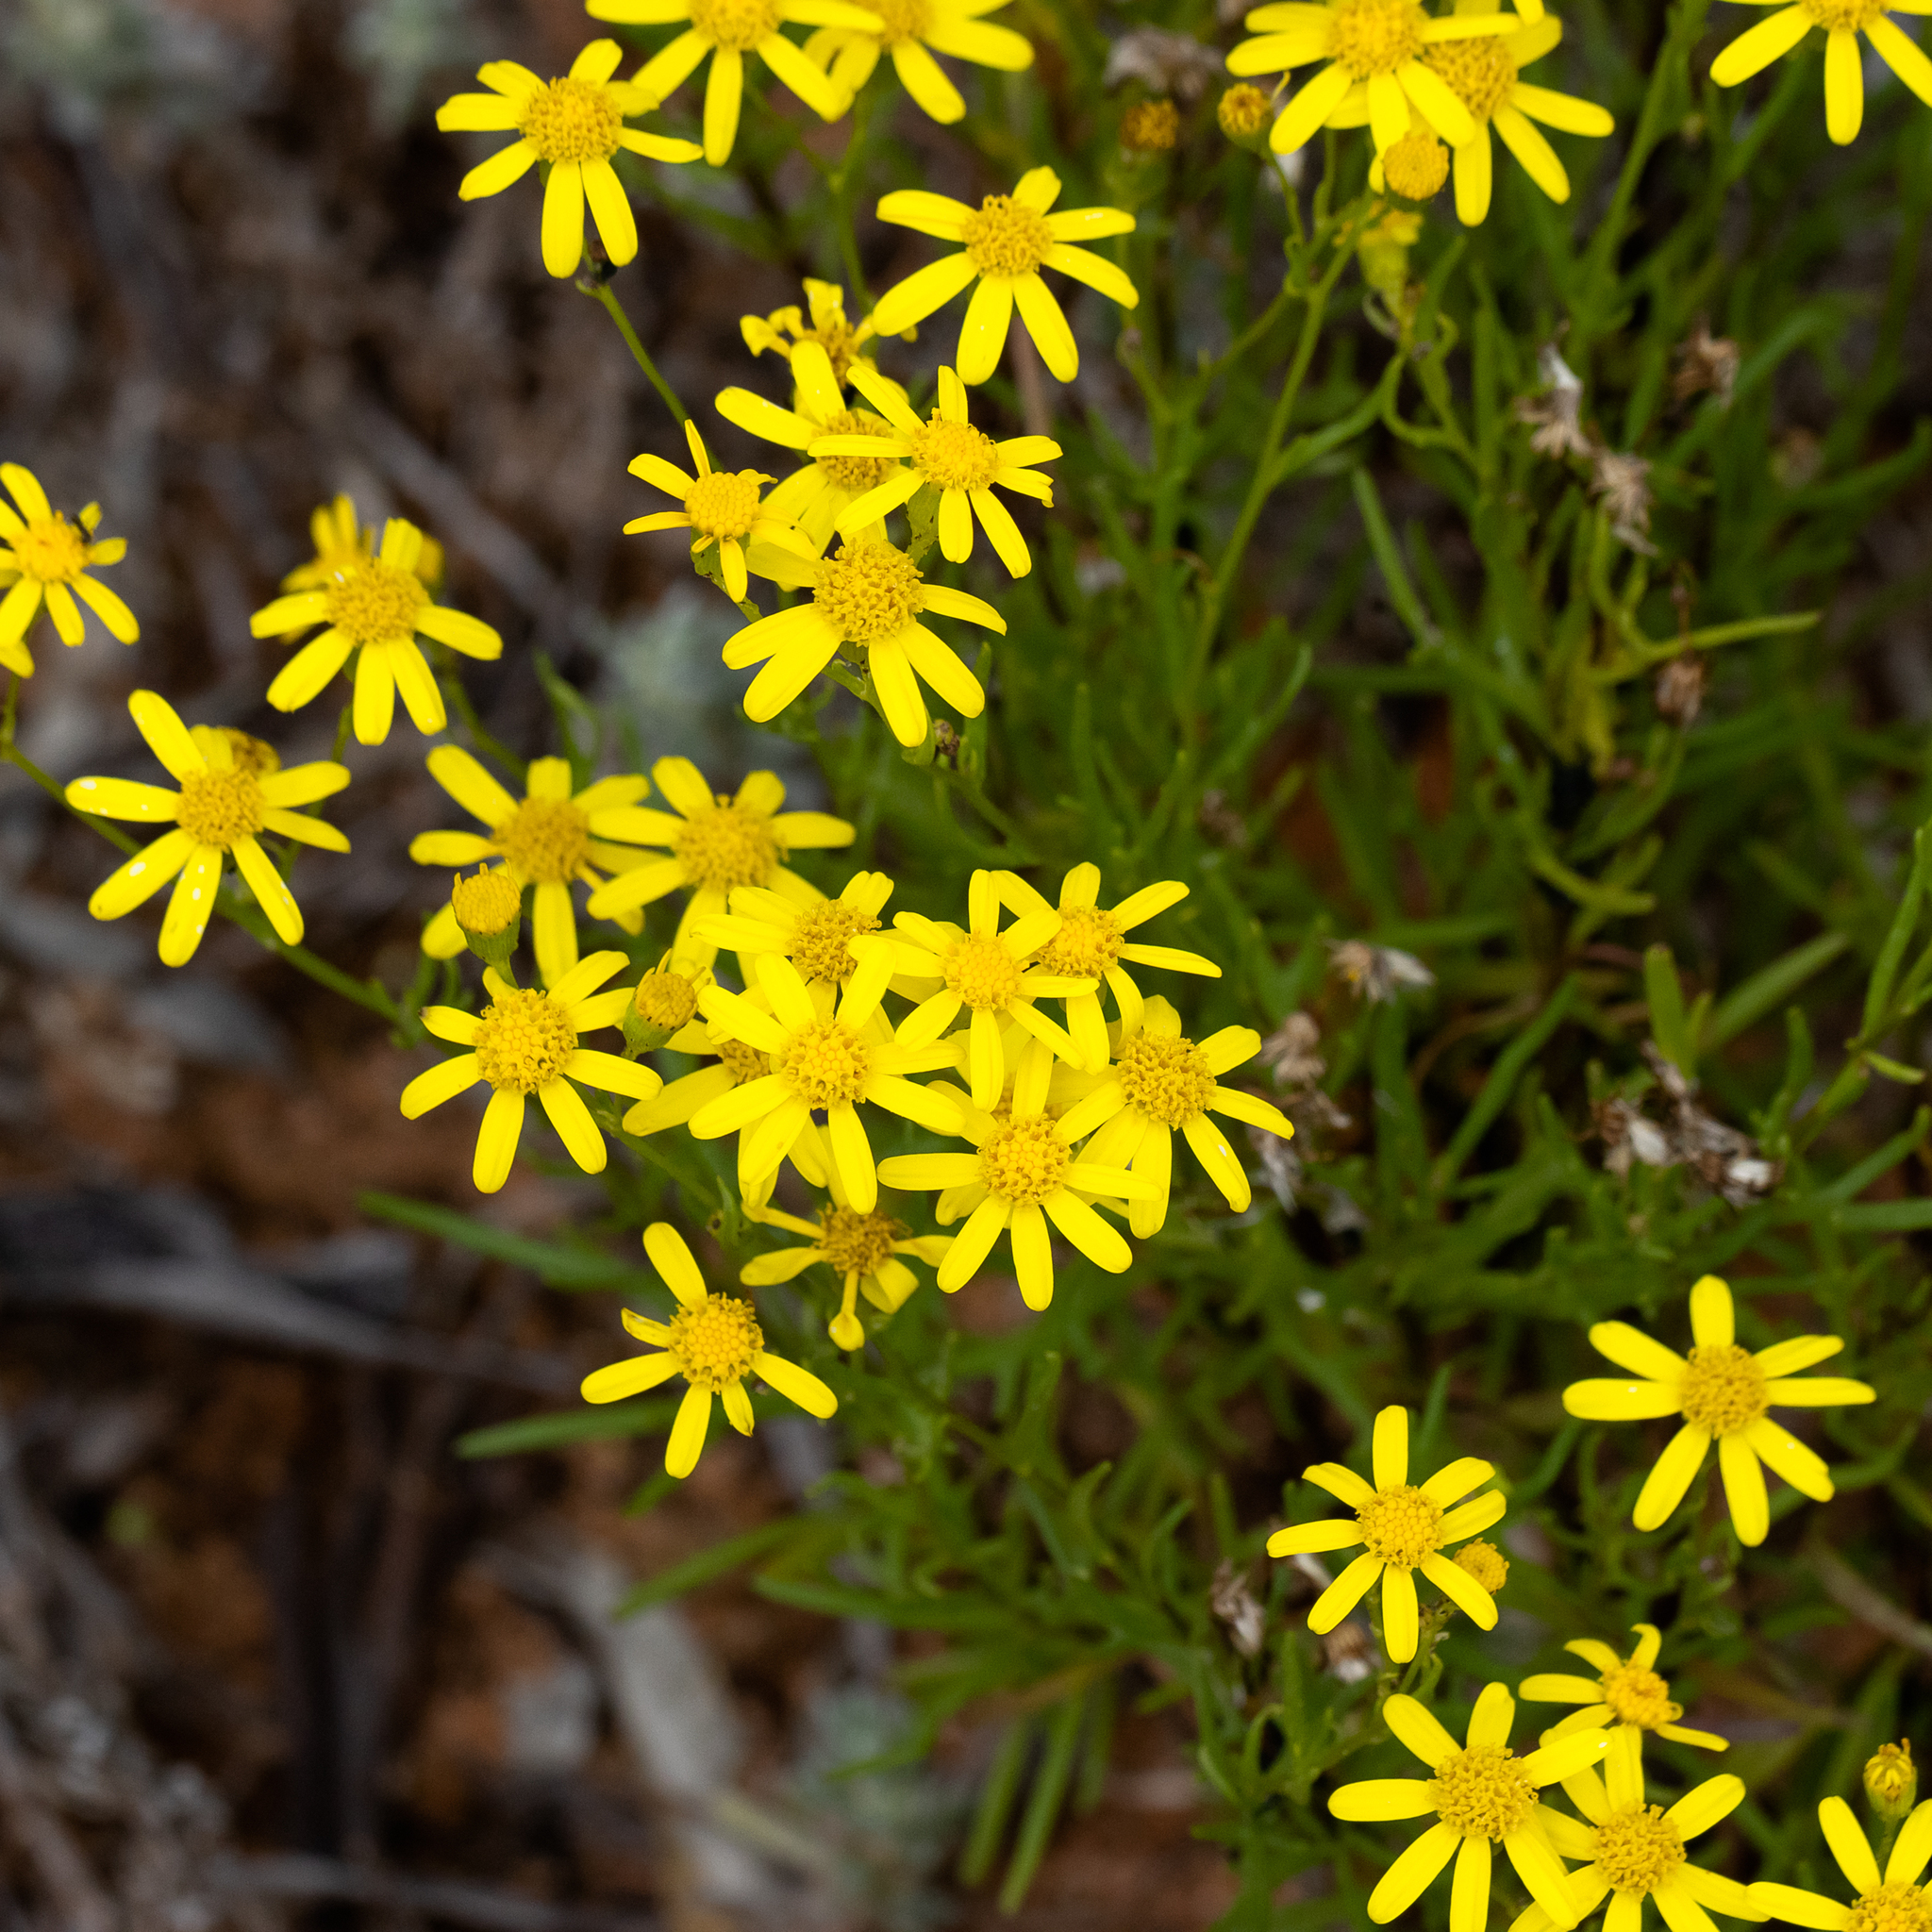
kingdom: Plantae
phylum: Tracheophyta
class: Magnoliopsida
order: Asterales
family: Asteraceae
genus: Senecio
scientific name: Senecio spanomerus
